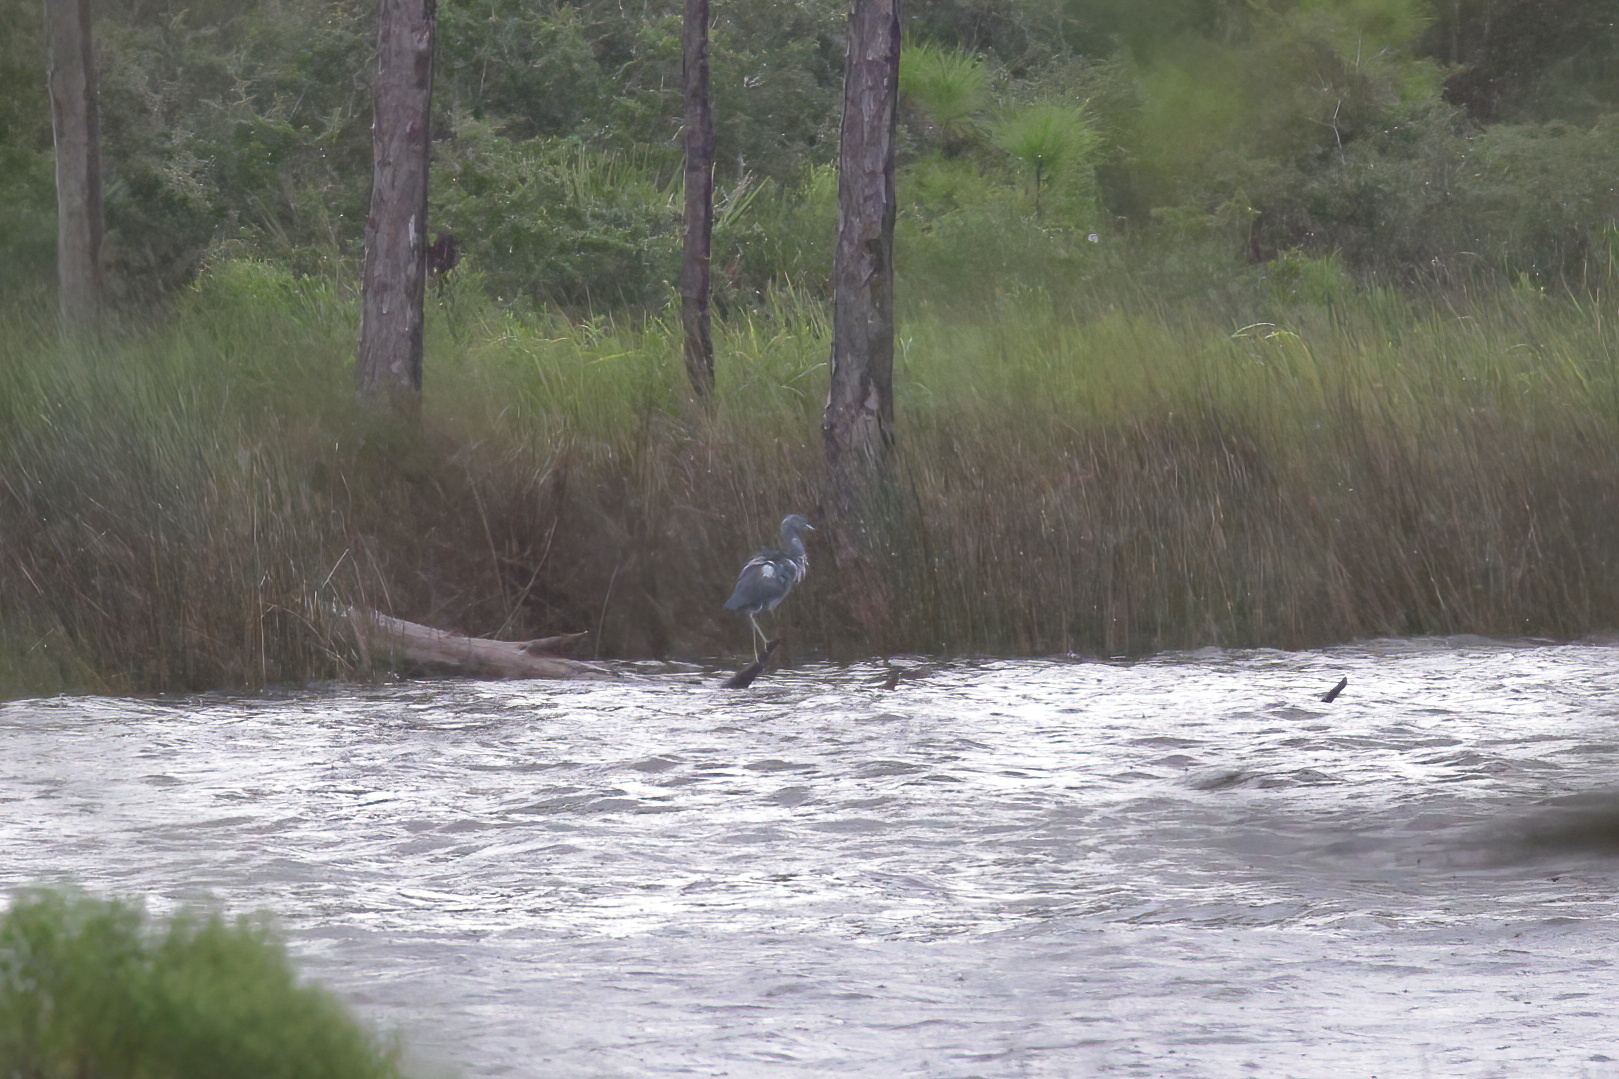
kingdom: Animalia
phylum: Chordata
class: Aves
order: Pelecaniformes
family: Ardeidae
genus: Egretta
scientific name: Egretta tricolor
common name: Tricolored heron
